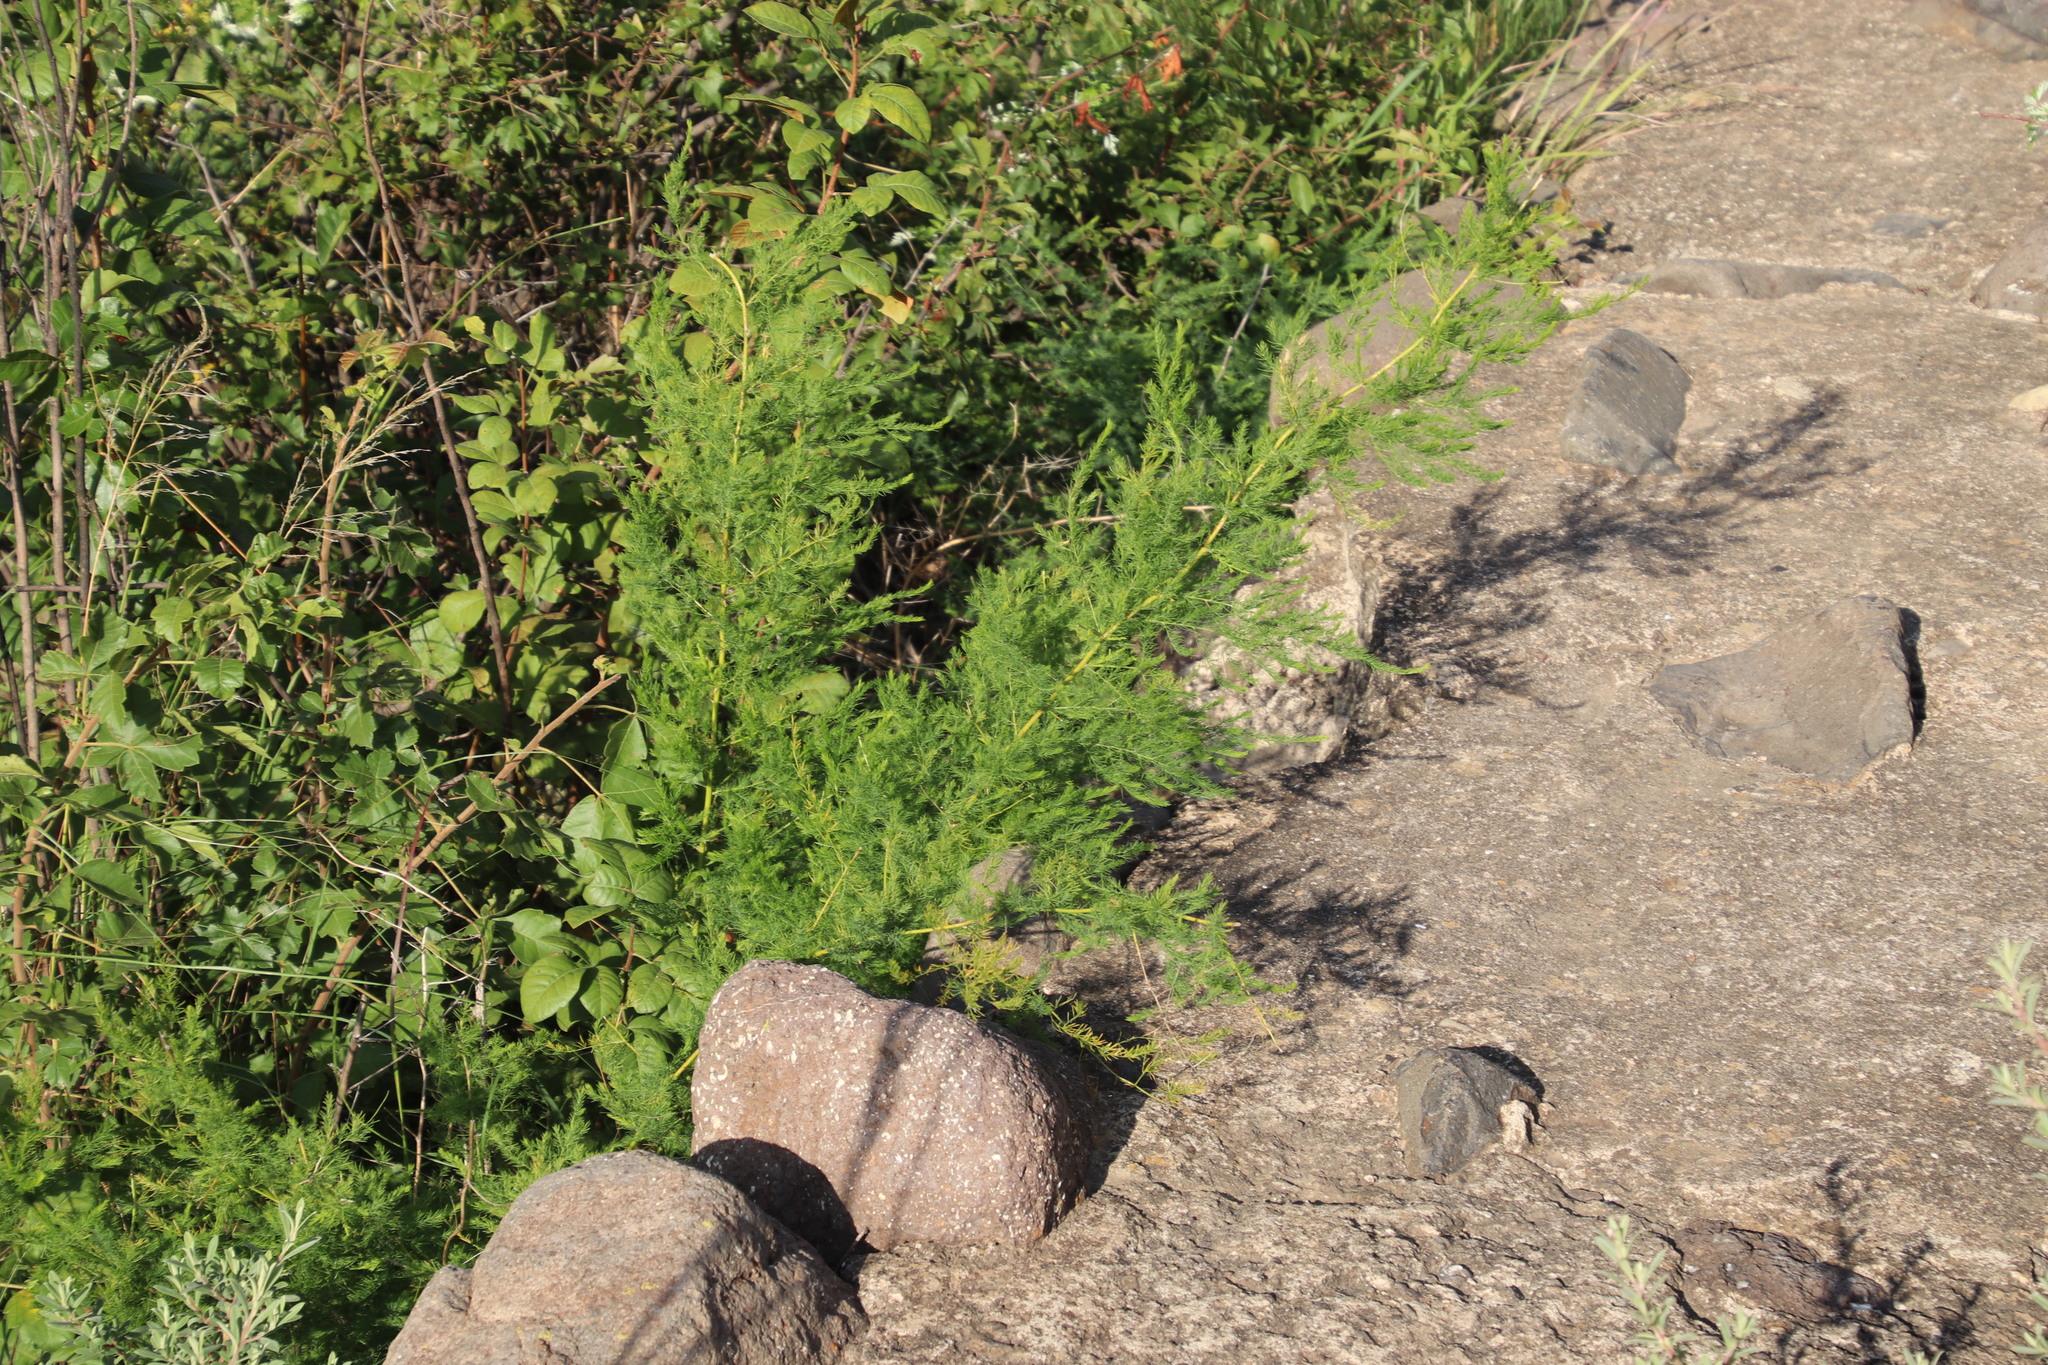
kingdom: Plantae
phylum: Tracheophyta
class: Liliopsida
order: Asparagales
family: Asparagaceae
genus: Asparagus
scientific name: Asparagus africanus
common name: Asparagus-fern
